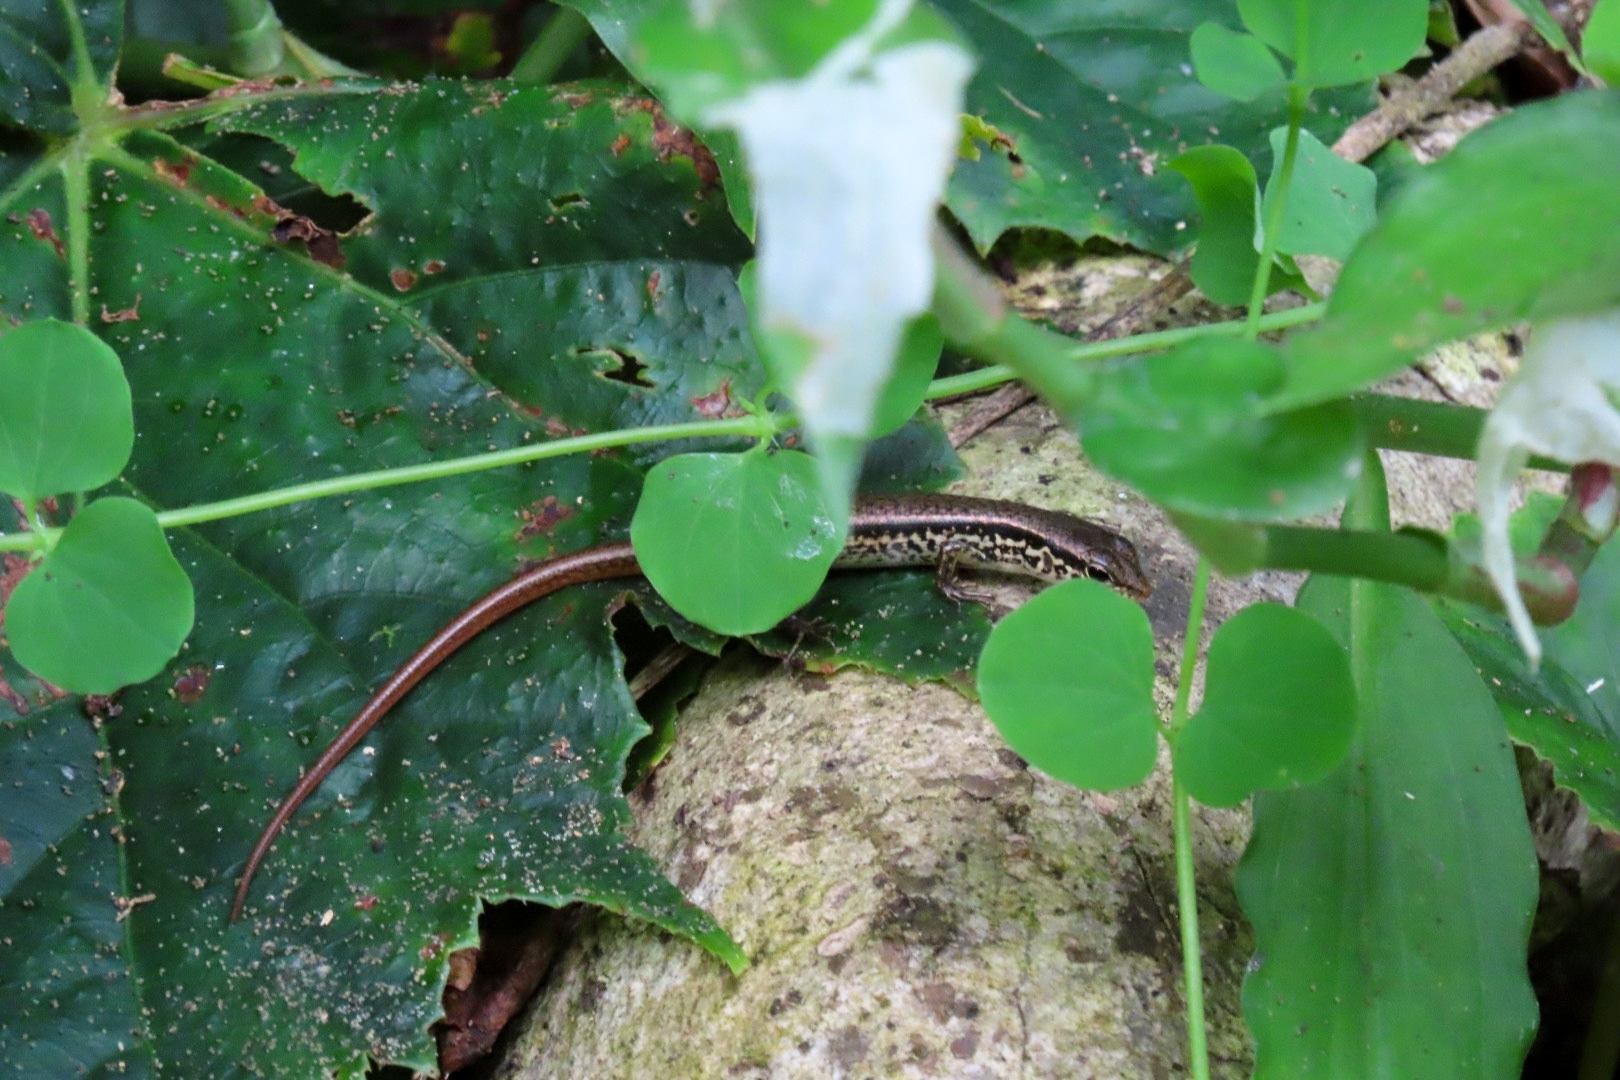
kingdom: Animalia
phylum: Chordata
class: Squamata
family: Scincidae
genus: Sphenomorphus
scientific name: Sphenomorphus indicus
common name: Himalayan forest skink
